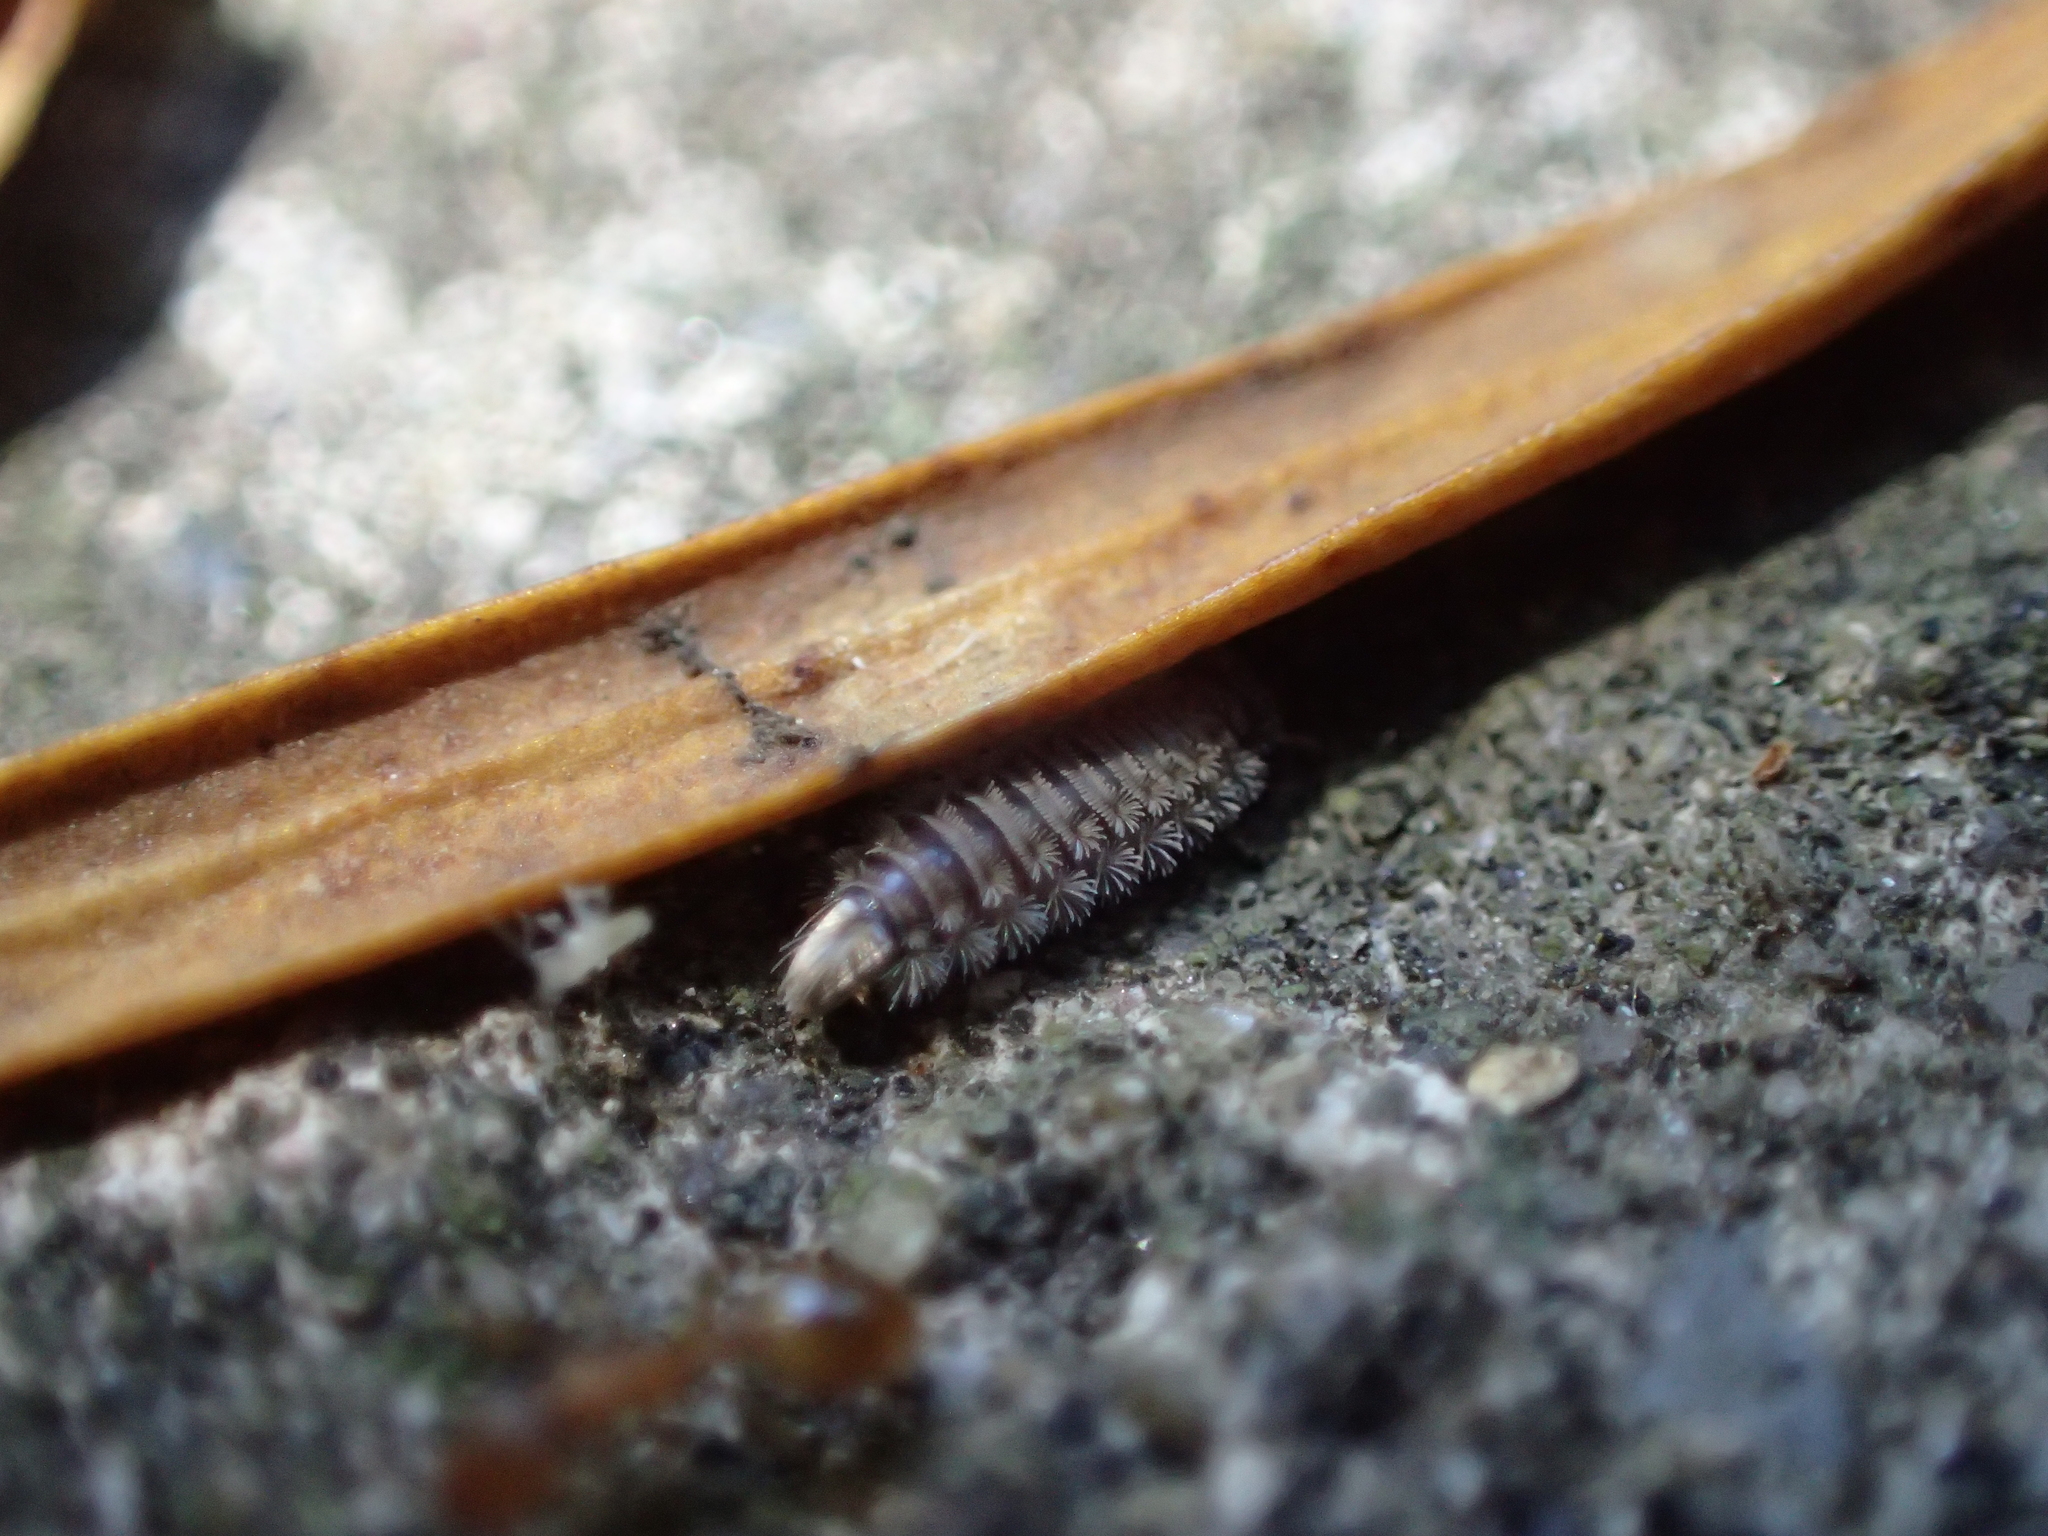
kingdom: Animalia
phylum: Arthropoda
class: Diplopoda
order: Polyxenida
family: Polyxenidae
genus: Polyxenus
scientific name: Polyxenus lagurus
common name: Bristly millipede
